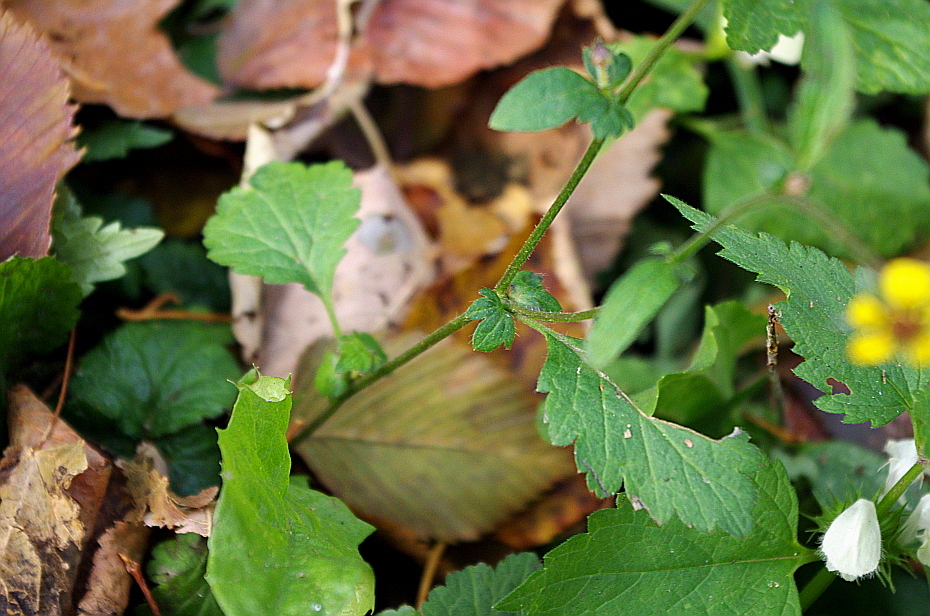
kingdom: Plantae
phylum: Tracheophyta
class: Magnoliopsida
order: Rosales
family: Rosaceae
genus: Geum
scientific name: Geum urbanum
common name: Wood avens
